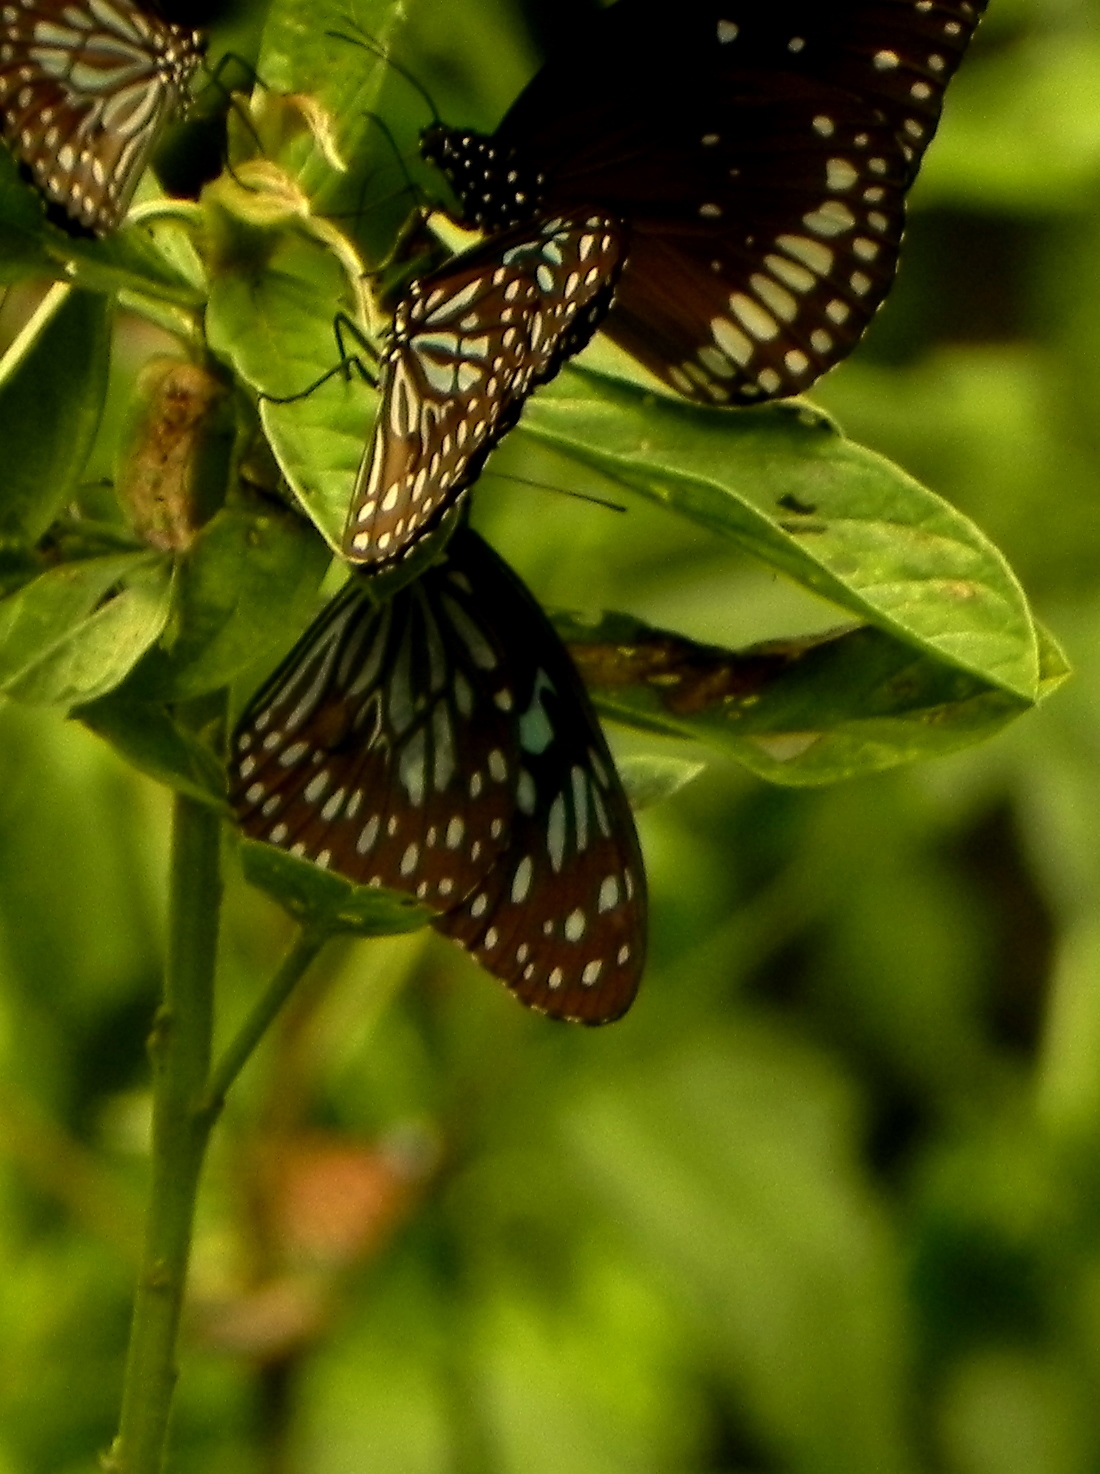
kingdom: Animalia
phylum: Arthropoda
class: Insecta
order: Lepidoptera
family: Nymphalidae
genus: Tirumala
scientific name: Tirumala septentrionis
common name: Dark blue tiger butterfly
